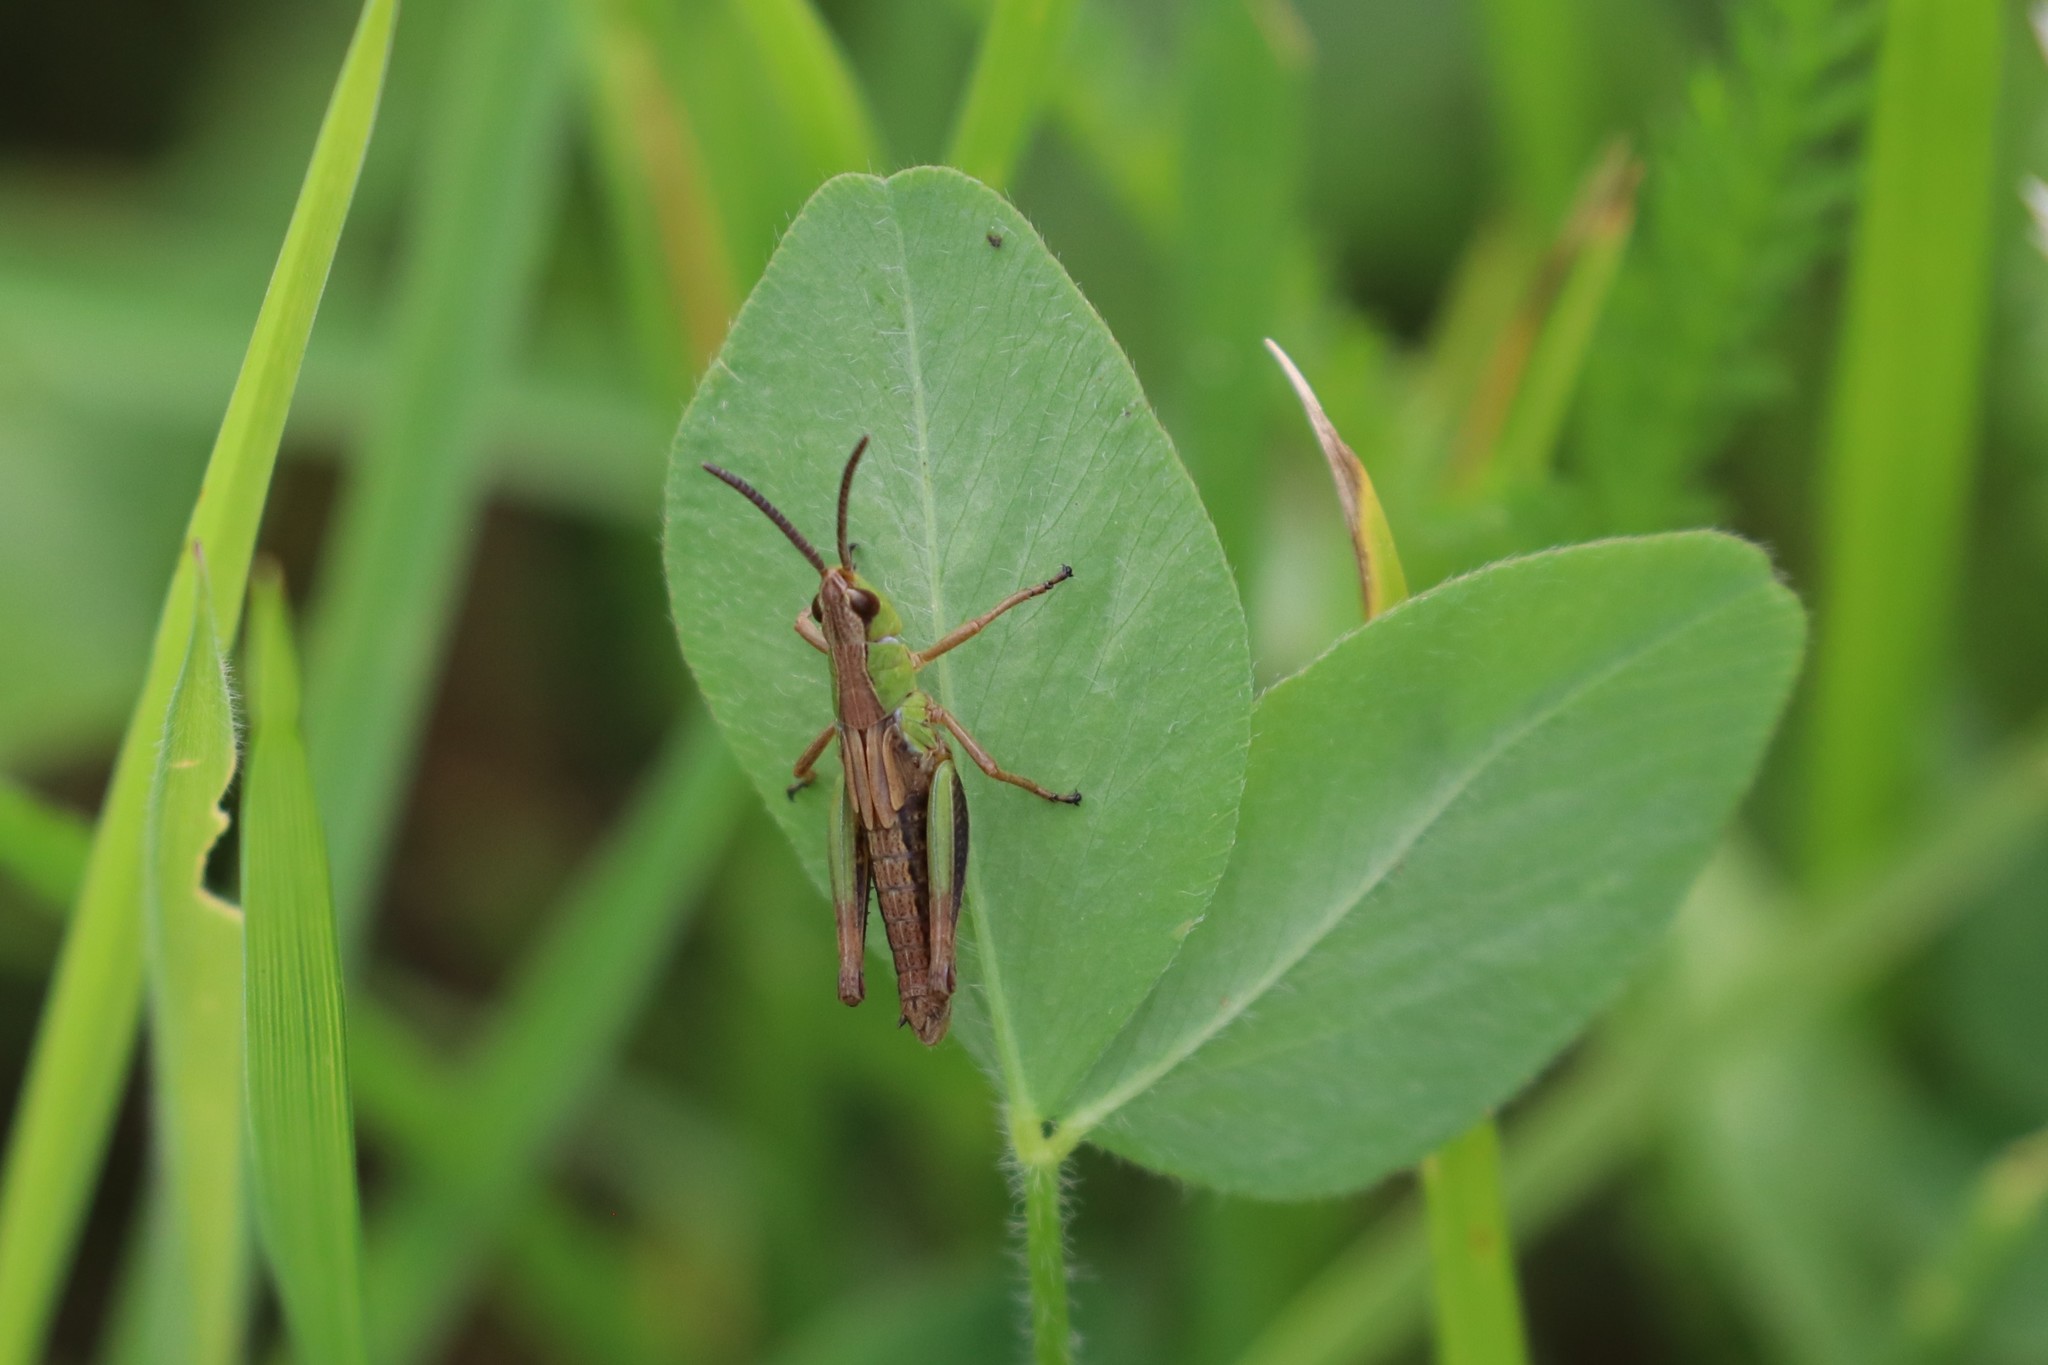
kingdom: Animalia
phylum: Arthropoda
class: Insecta
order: Orthoptera
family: Acrididae
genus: Pseudochorthippus
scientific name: Pseudochorthippus parallelus
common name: Meadow grasshopper
